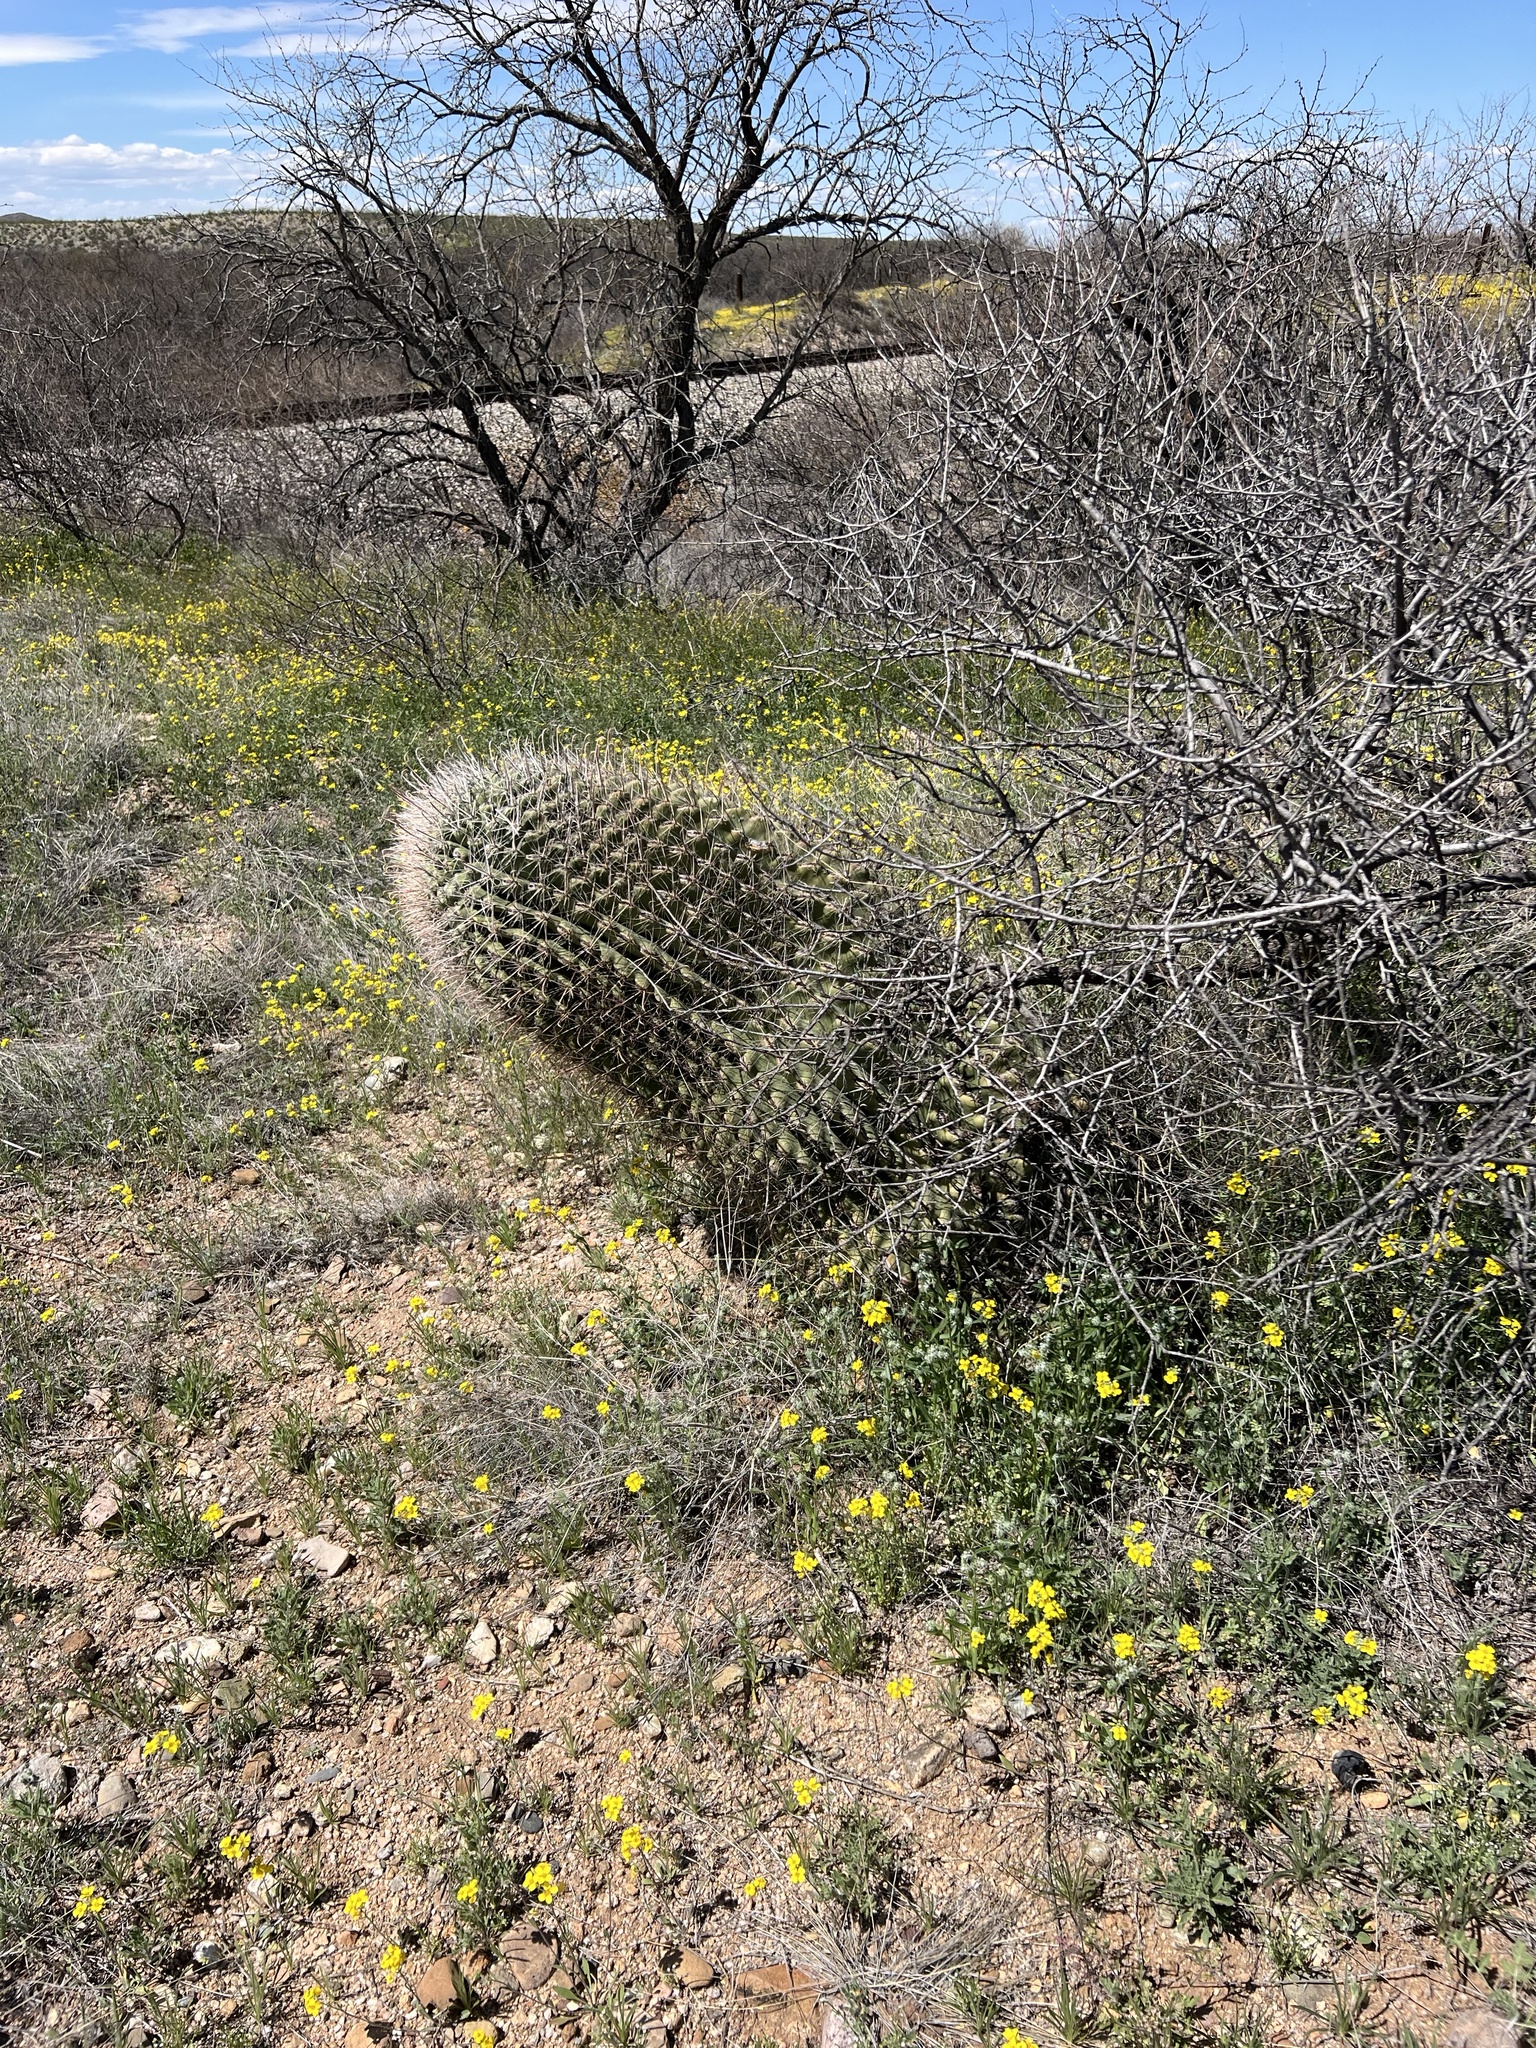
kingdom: Plantae
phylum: Tracheophyta
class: Magnoliopsida
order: Caryophyllales
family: Cactaceae
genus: Ferocactus
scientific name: Ferocactus wislizeni
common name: Candy barrel cactus
